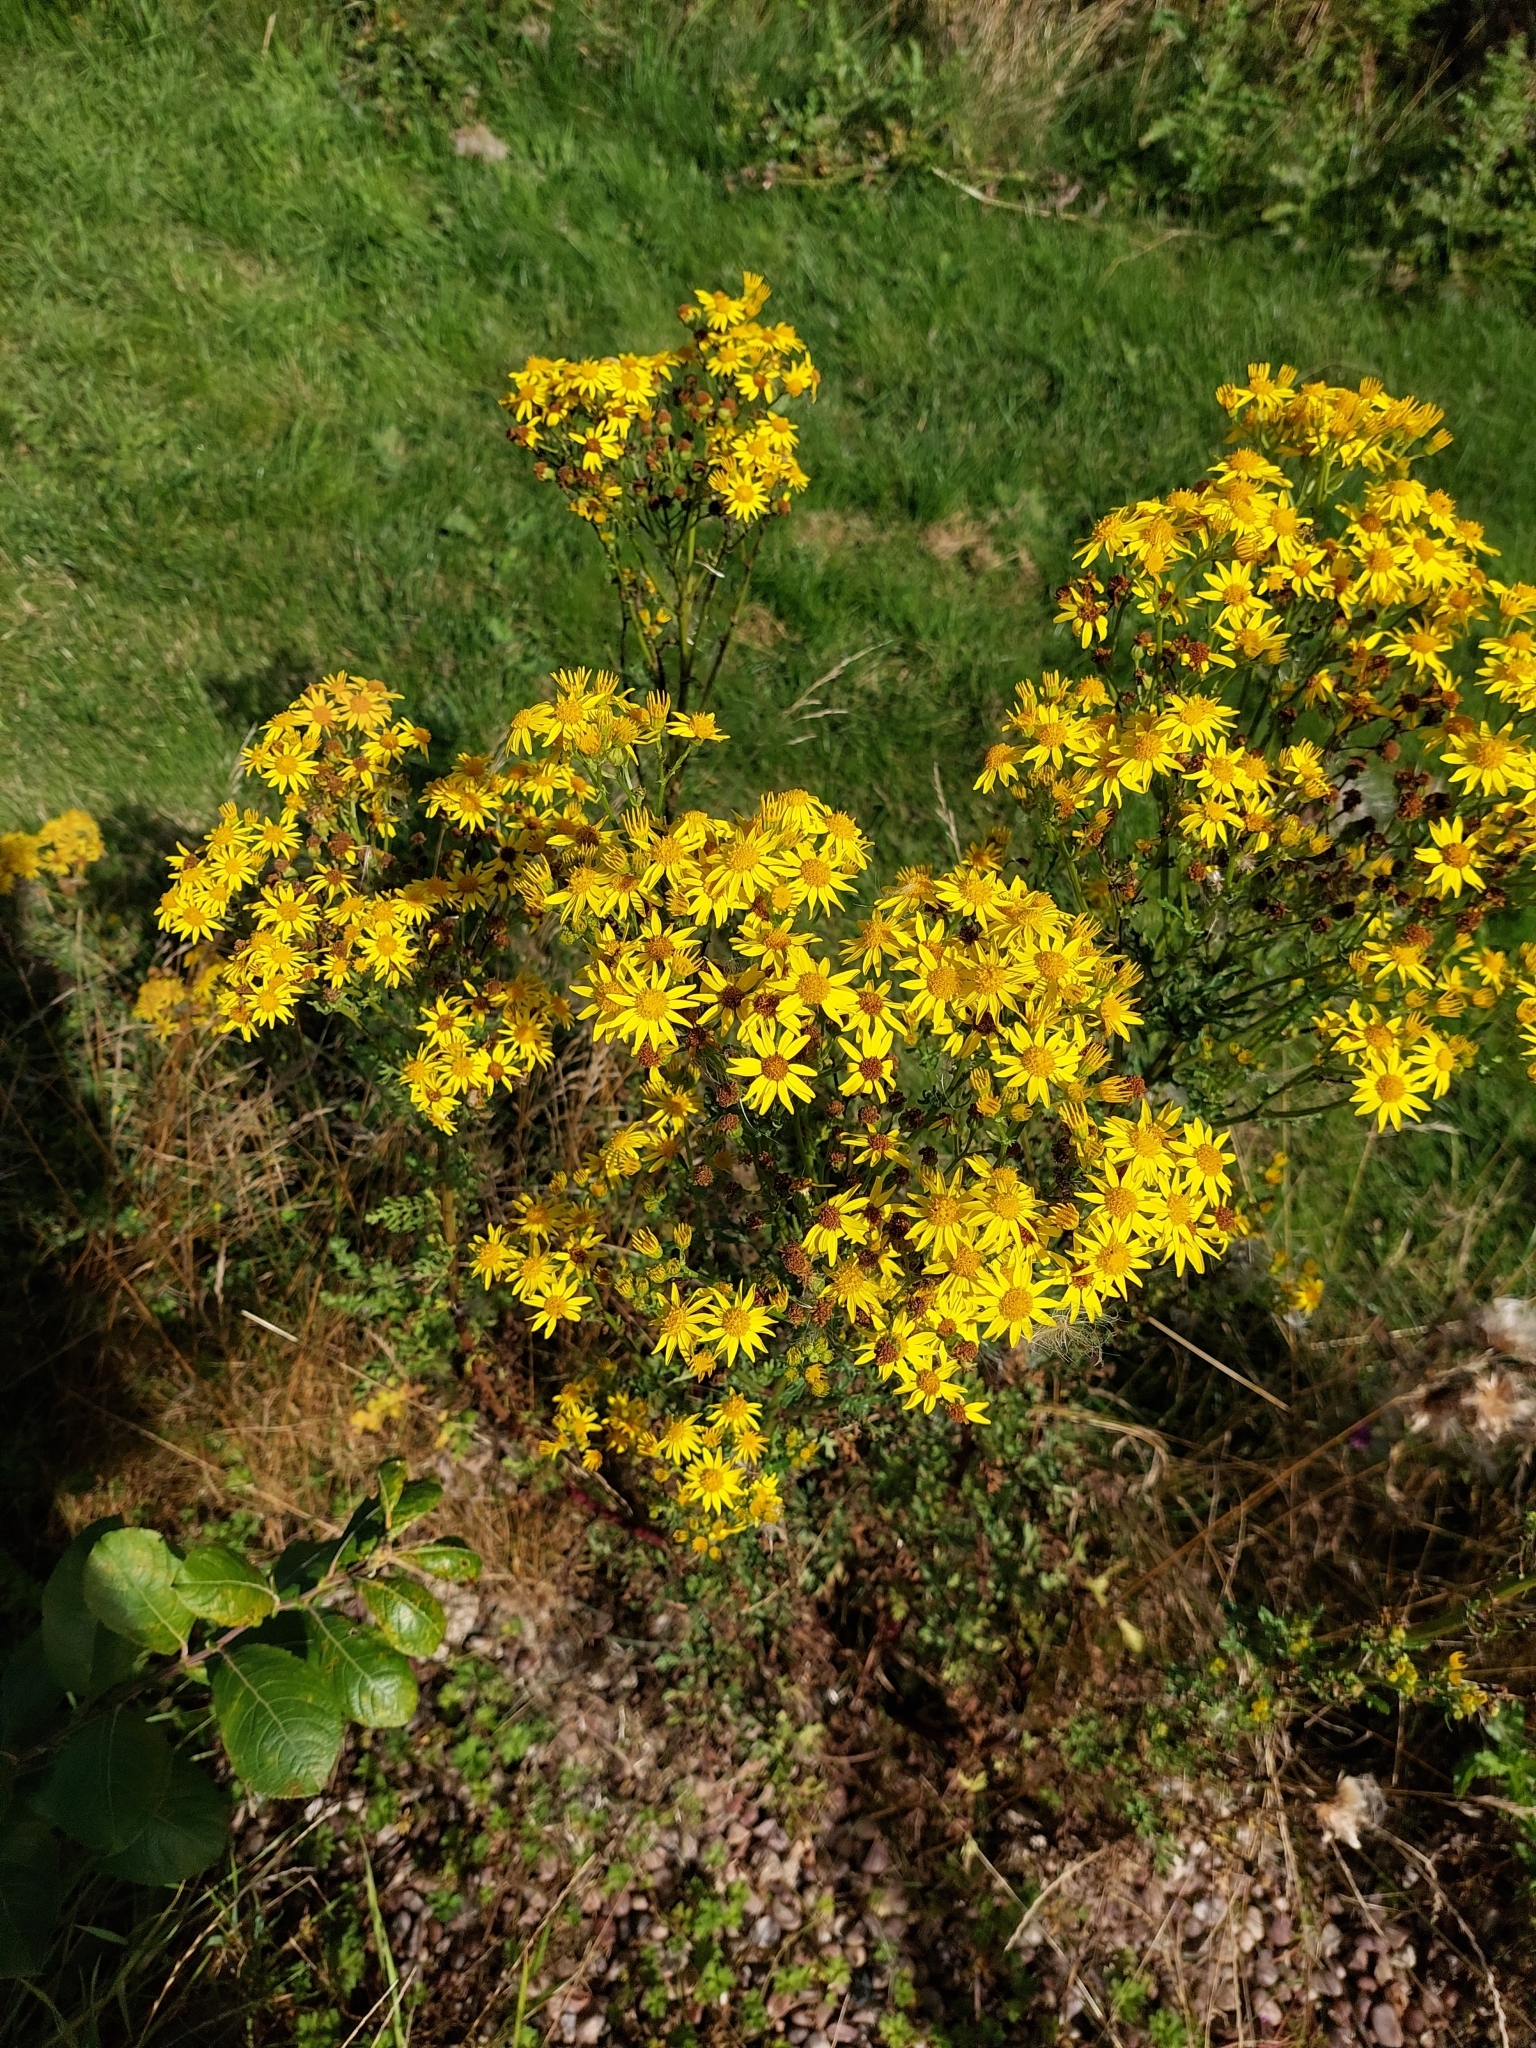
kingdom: Plantae
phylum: Tracheophyta
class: Magnoliopsida
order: Asterales
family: Asteraceae
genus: Jacobaea
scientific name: Jacobaea vulgaris
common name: Stinking willie
